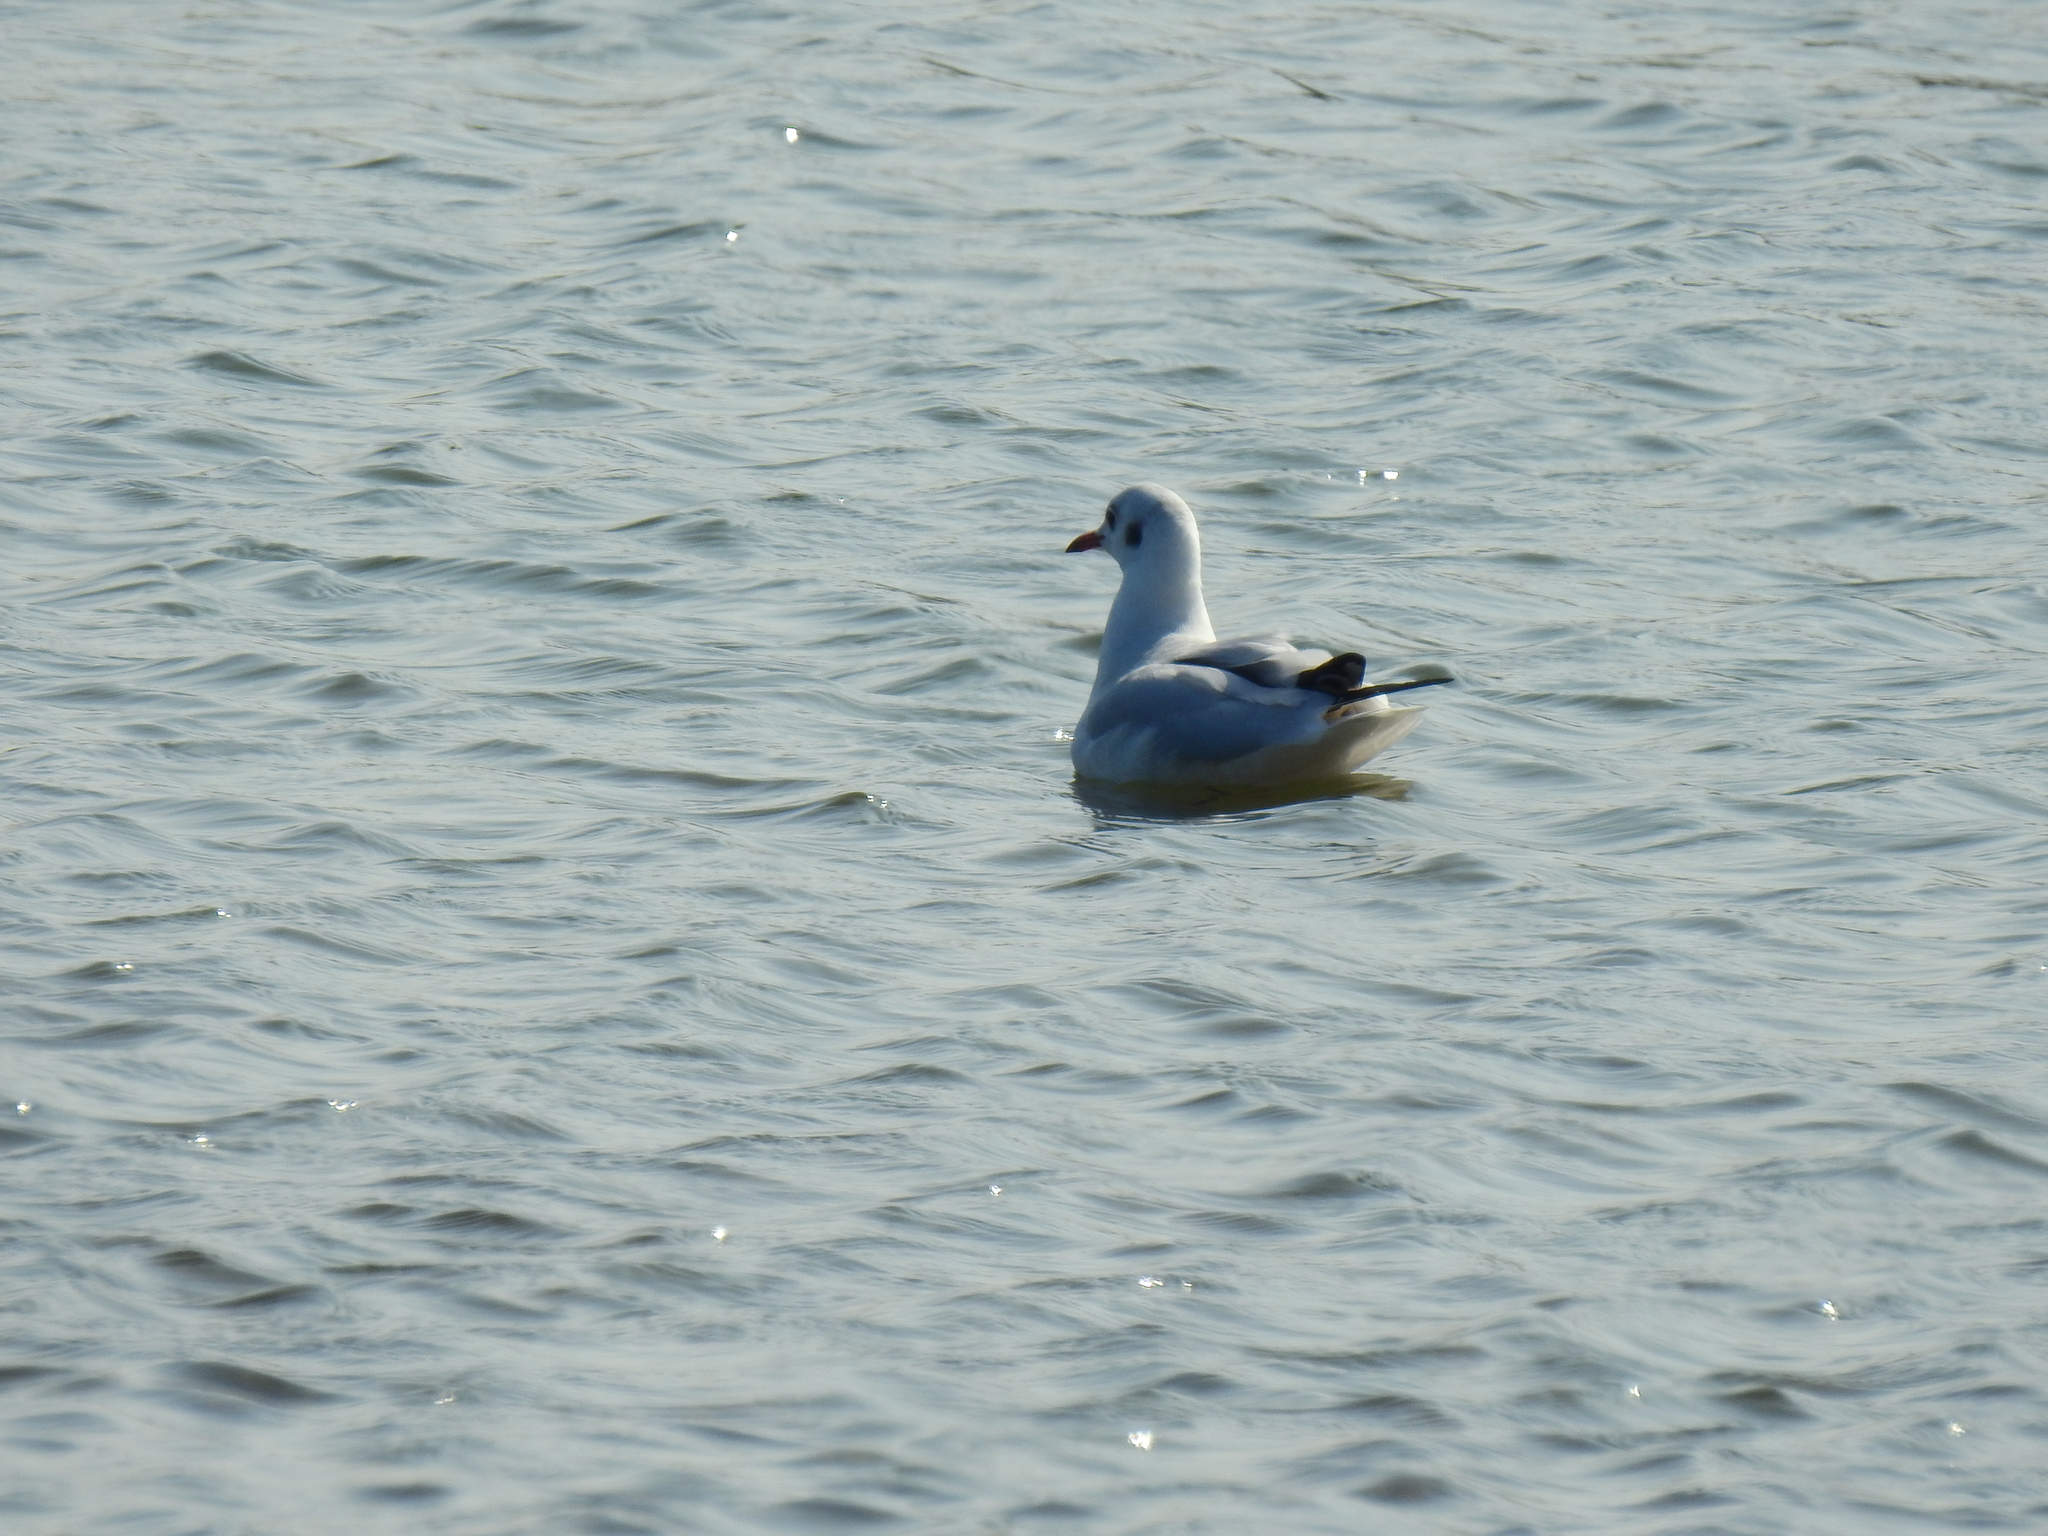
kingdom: Animalia
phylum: Chordata
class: Aves
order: Charadriiformes
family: Laridae
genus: Chroicocephalus
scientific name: Chroicocephalus ridibundus
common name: Black-headed gull
